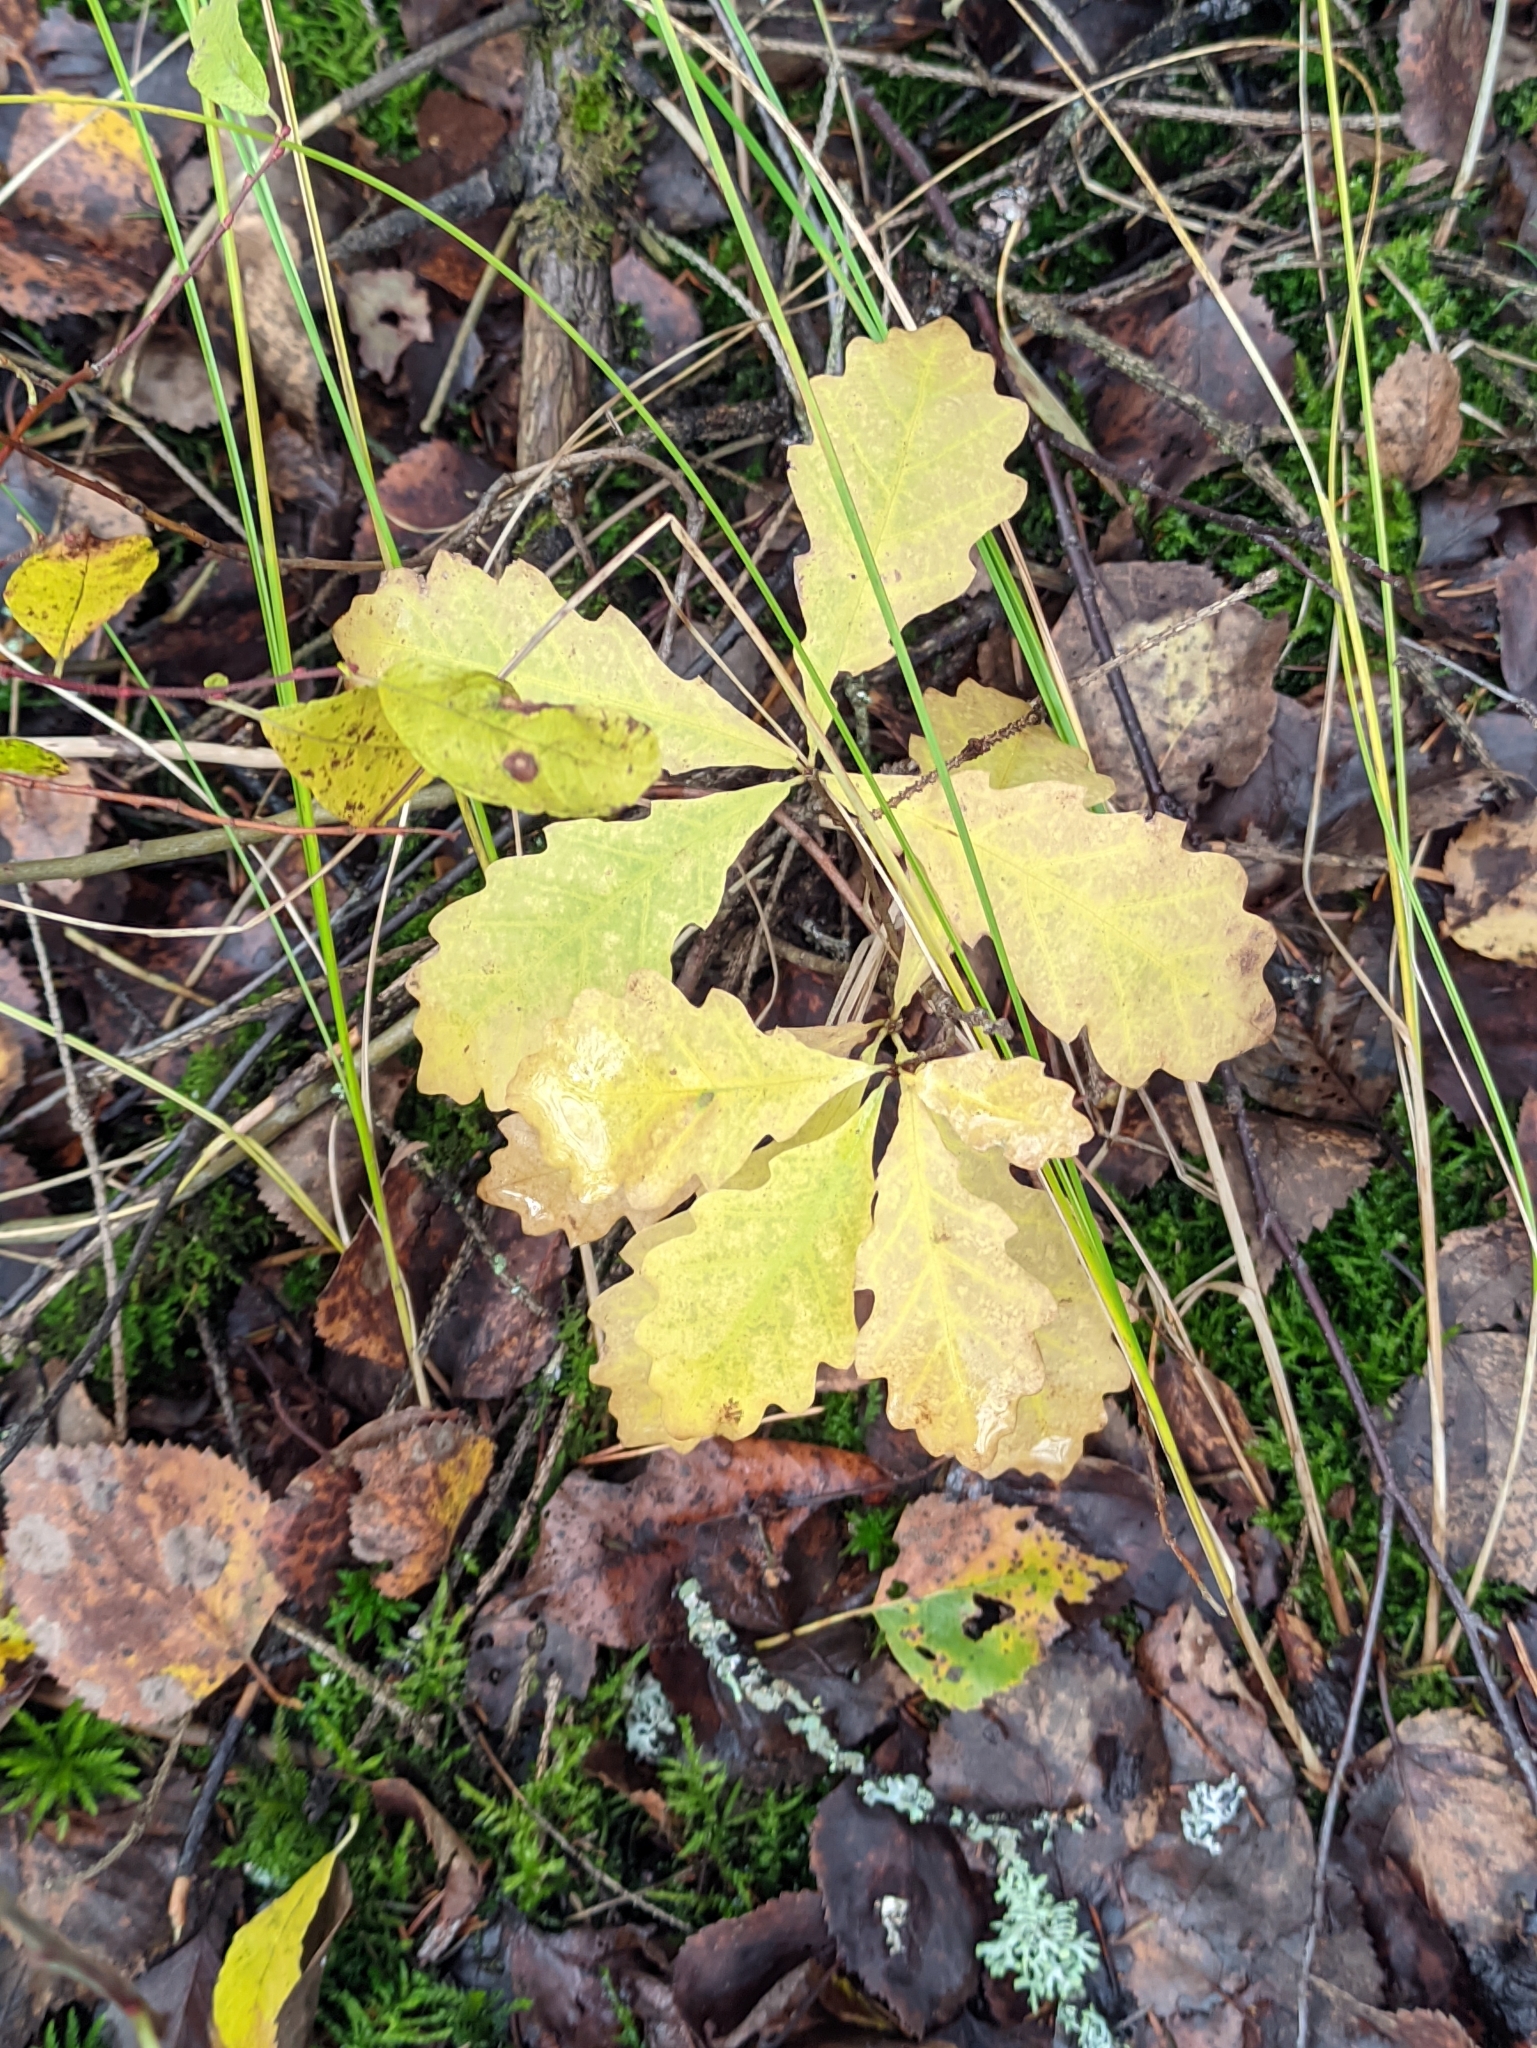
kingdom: Plantae
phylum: Tracheophyta
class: Magnoliopsida
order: Fagales
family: Fagaceae
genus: Quercus
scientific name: Quercus robur
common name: Pedunculate oak
